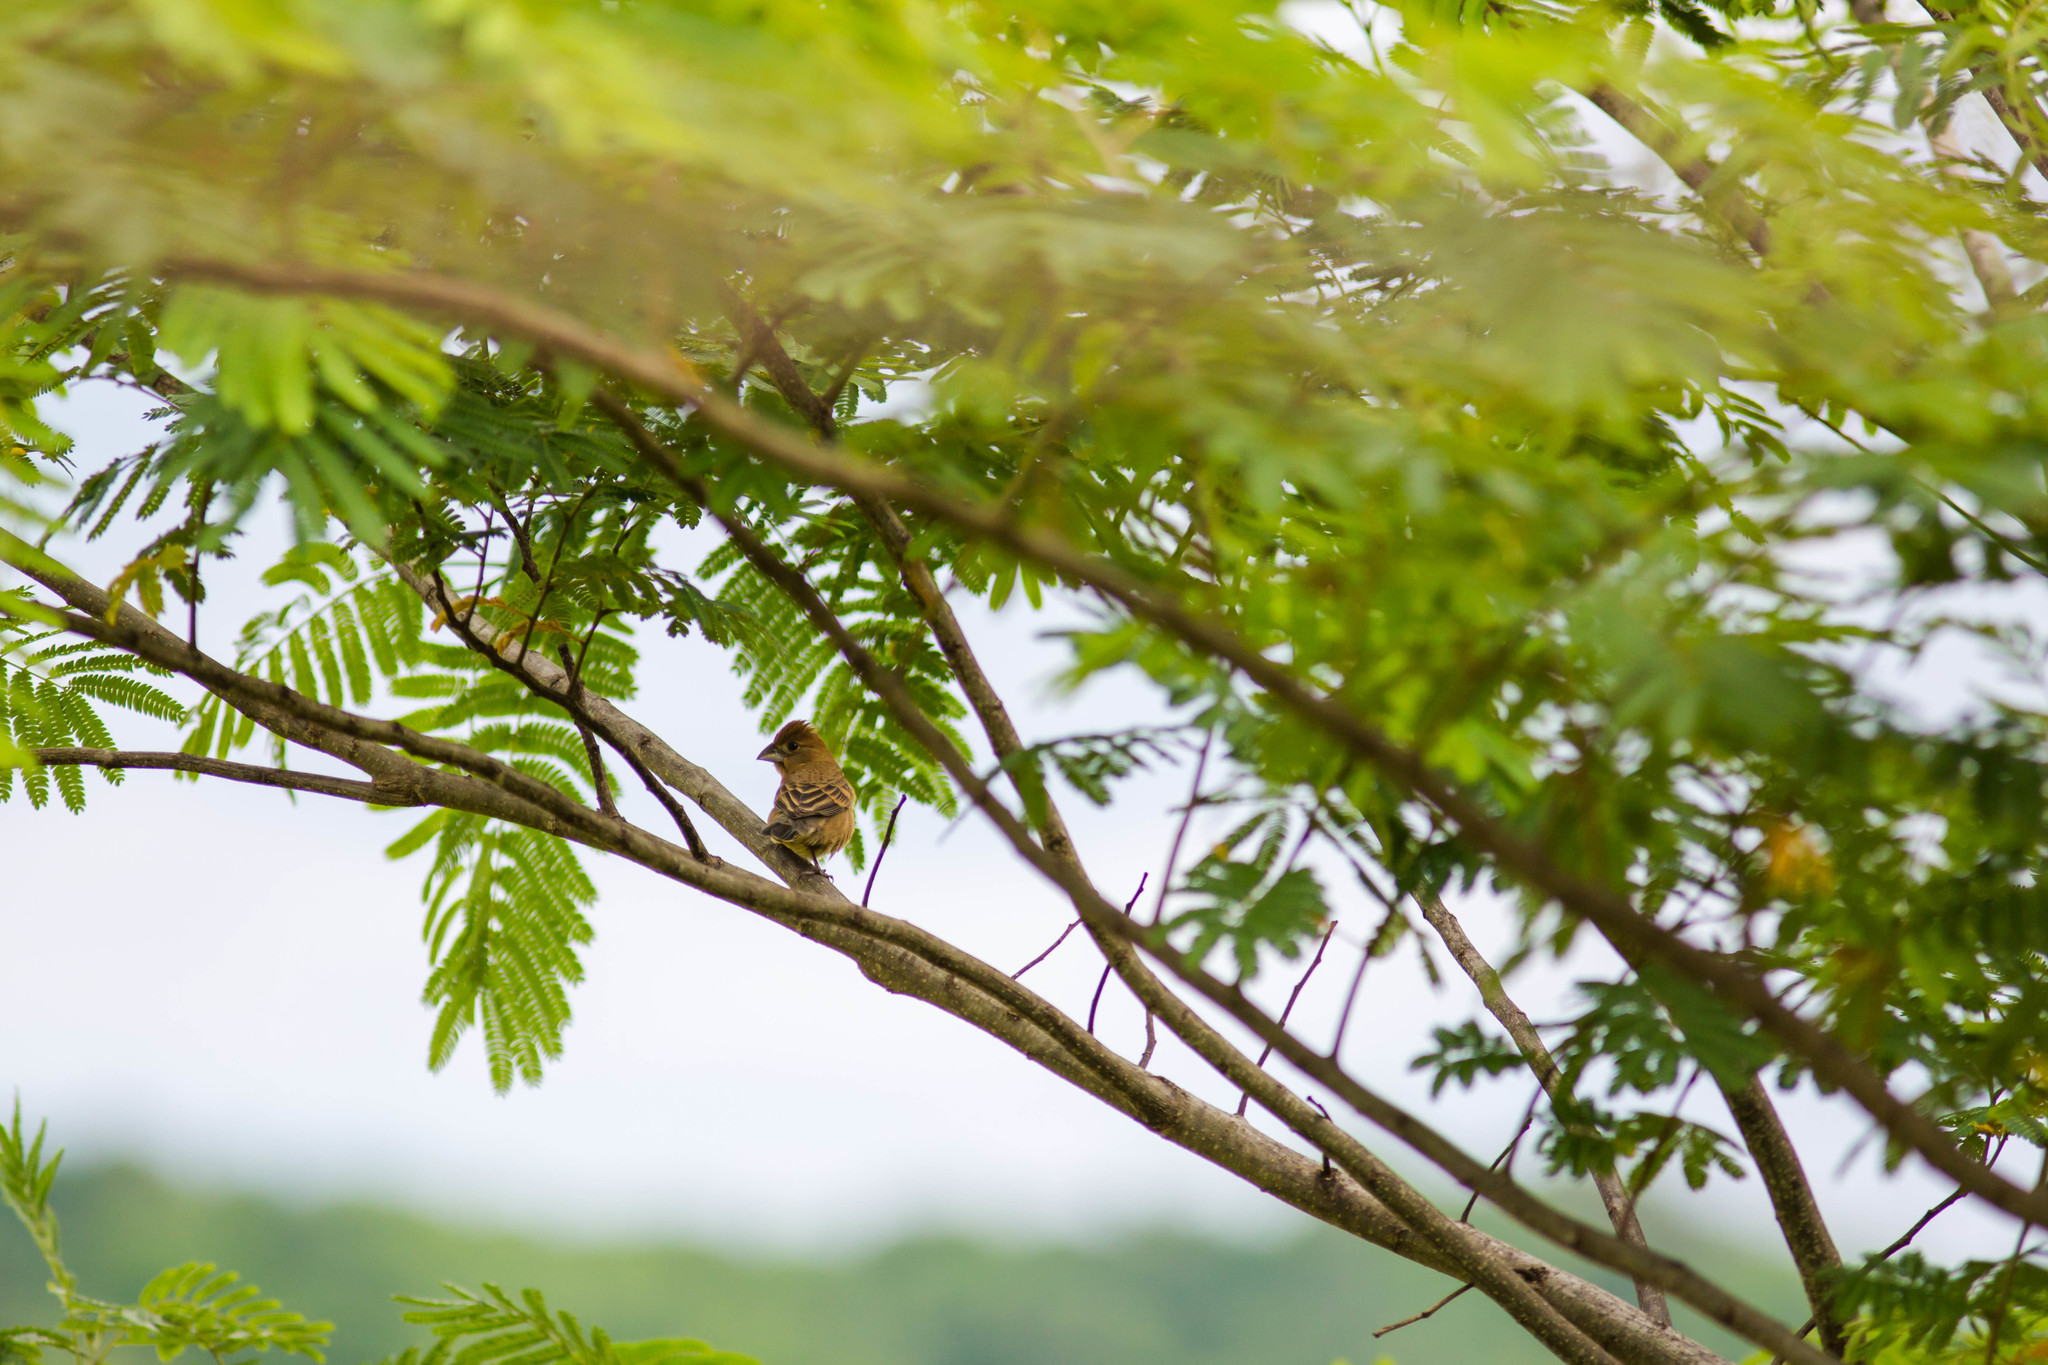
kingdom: Animalia
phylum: Chordata
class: Aves
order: Passeriformes
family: Cardinalidae
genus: Passerina
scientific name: Passerina caerulea
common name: Blue grosbeak
